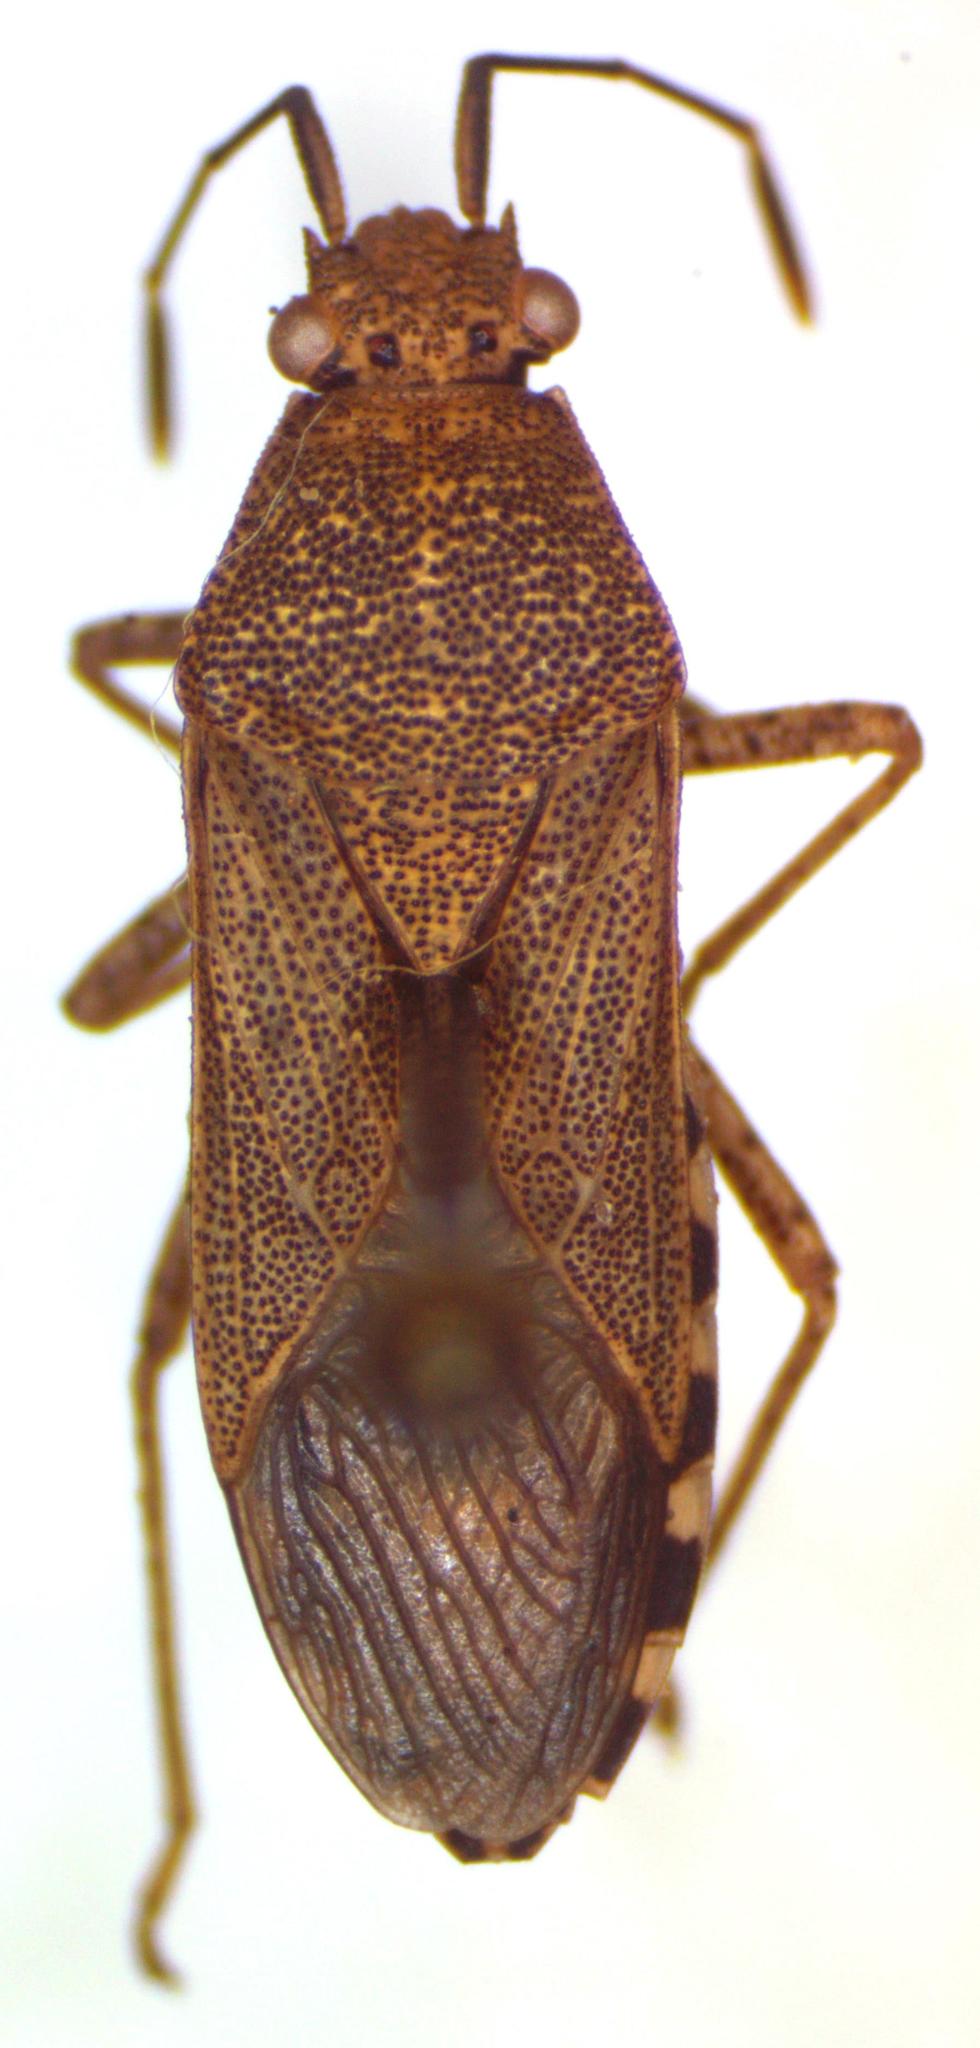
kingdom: Animalia
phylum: Arthropoda
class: Insecta
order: Hemiptera
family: Coreidae
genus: Catorhintha
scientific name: Catorhintha guttula
